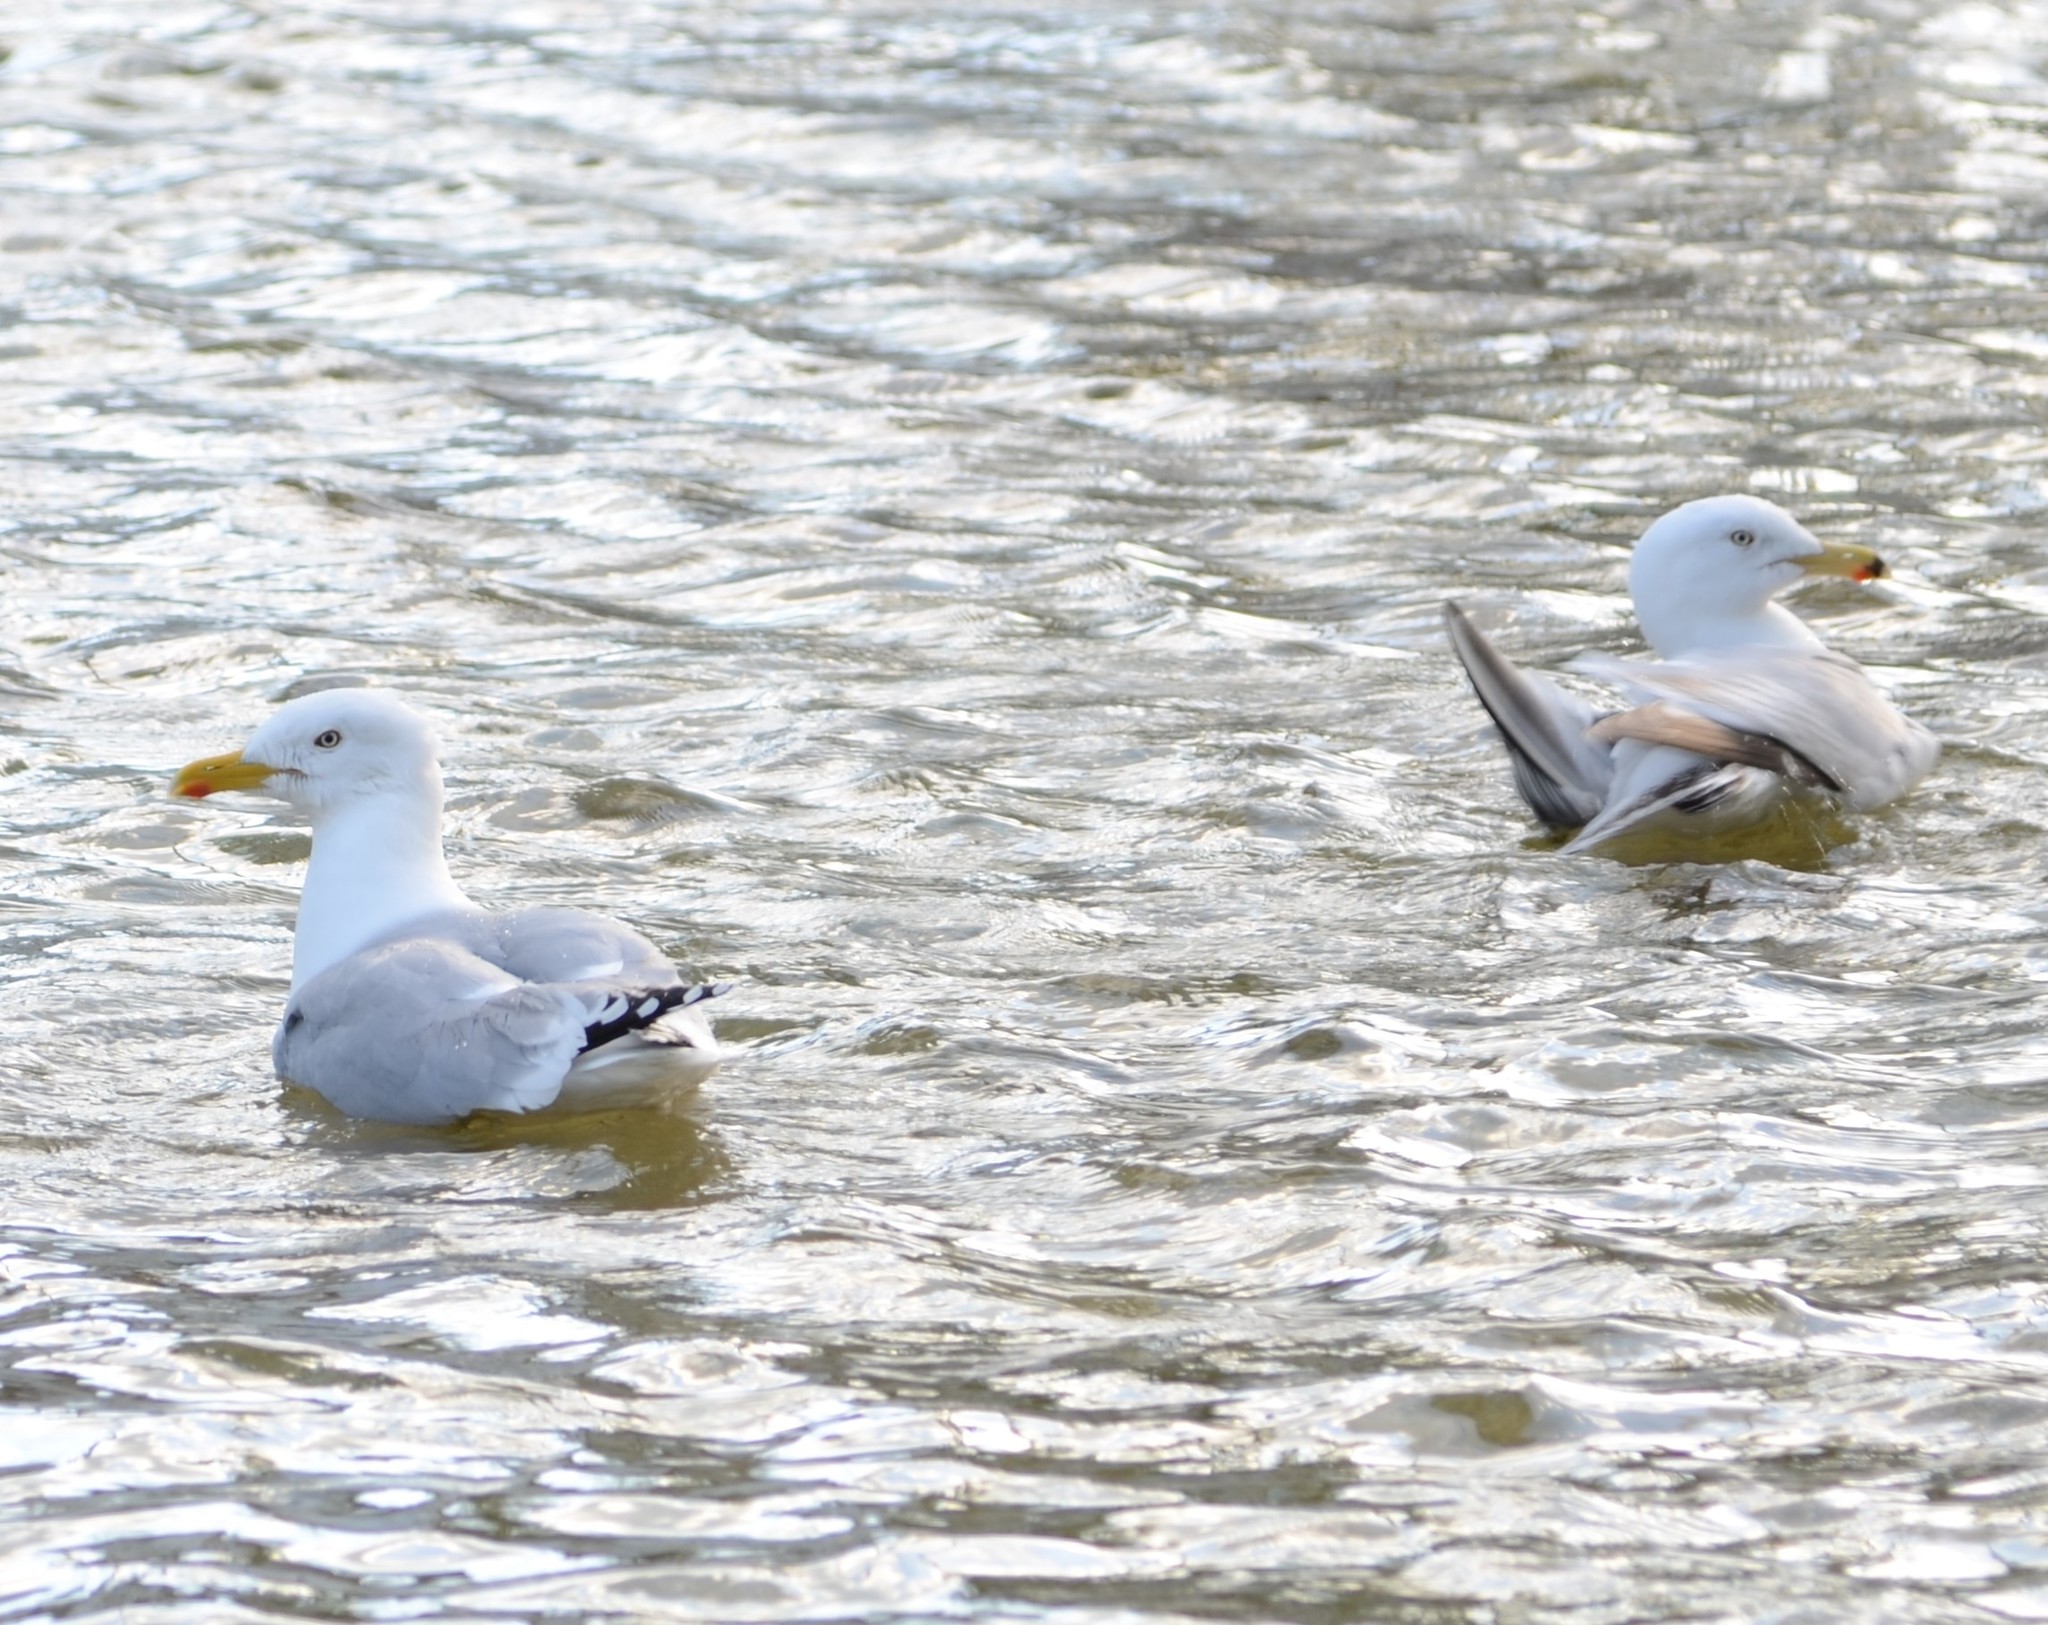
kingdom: Animalia
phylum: Chordata
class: Aves
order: Charadriiformes
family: Laridae
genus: Larus
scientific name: Larus argentatus
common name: Herring gull
